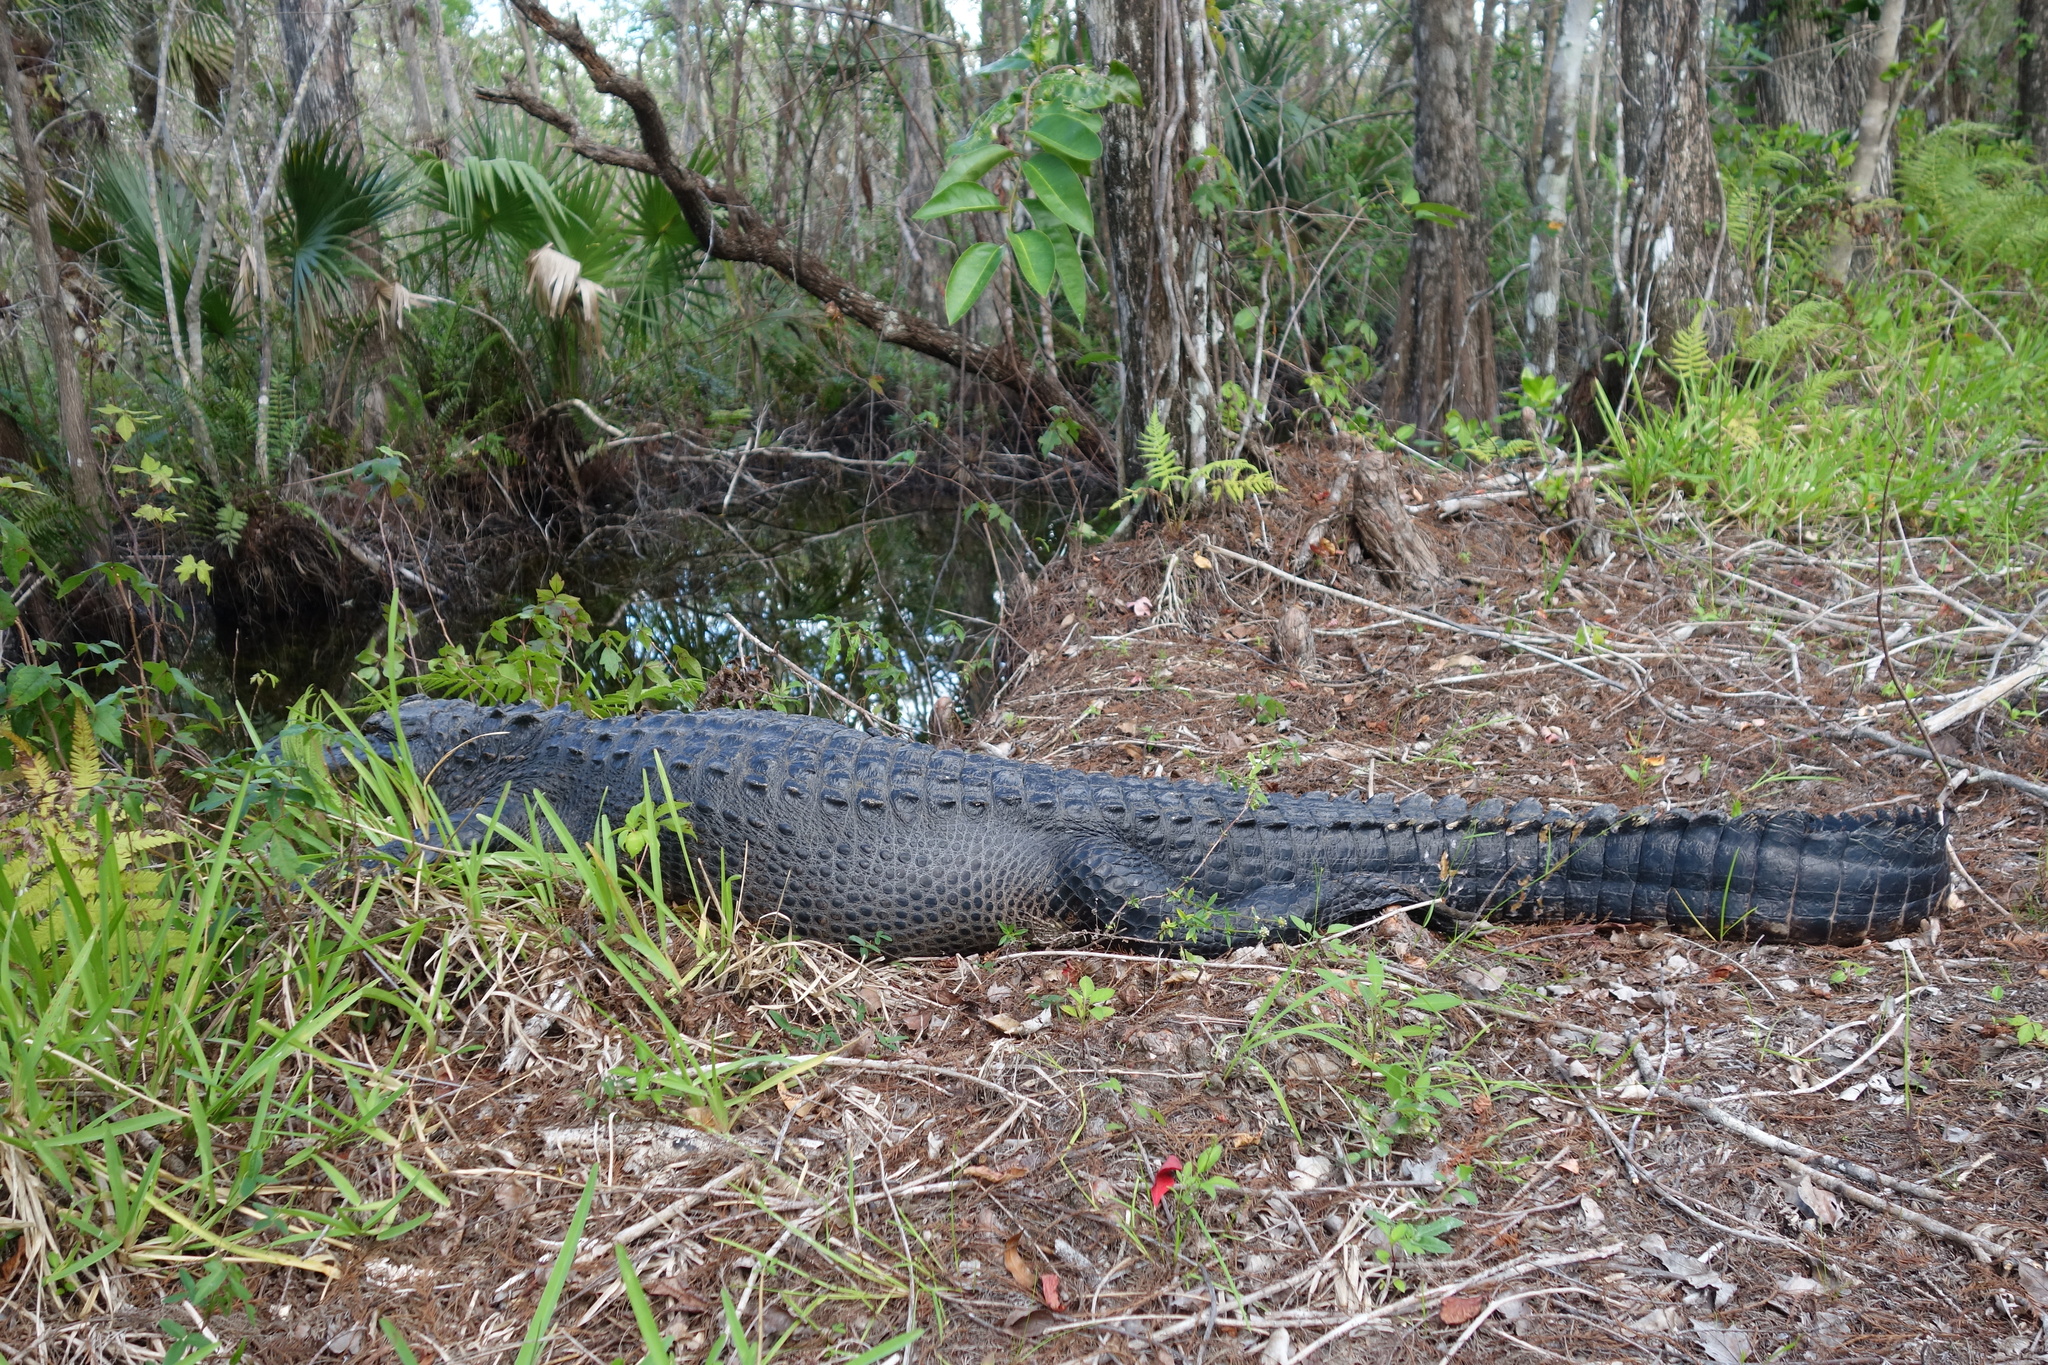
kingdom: Animalia
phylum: Chordata
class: Crocodylia
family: Alligatoridae
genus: Alligator
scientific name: Alligator mississippiensis
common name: American alligator
